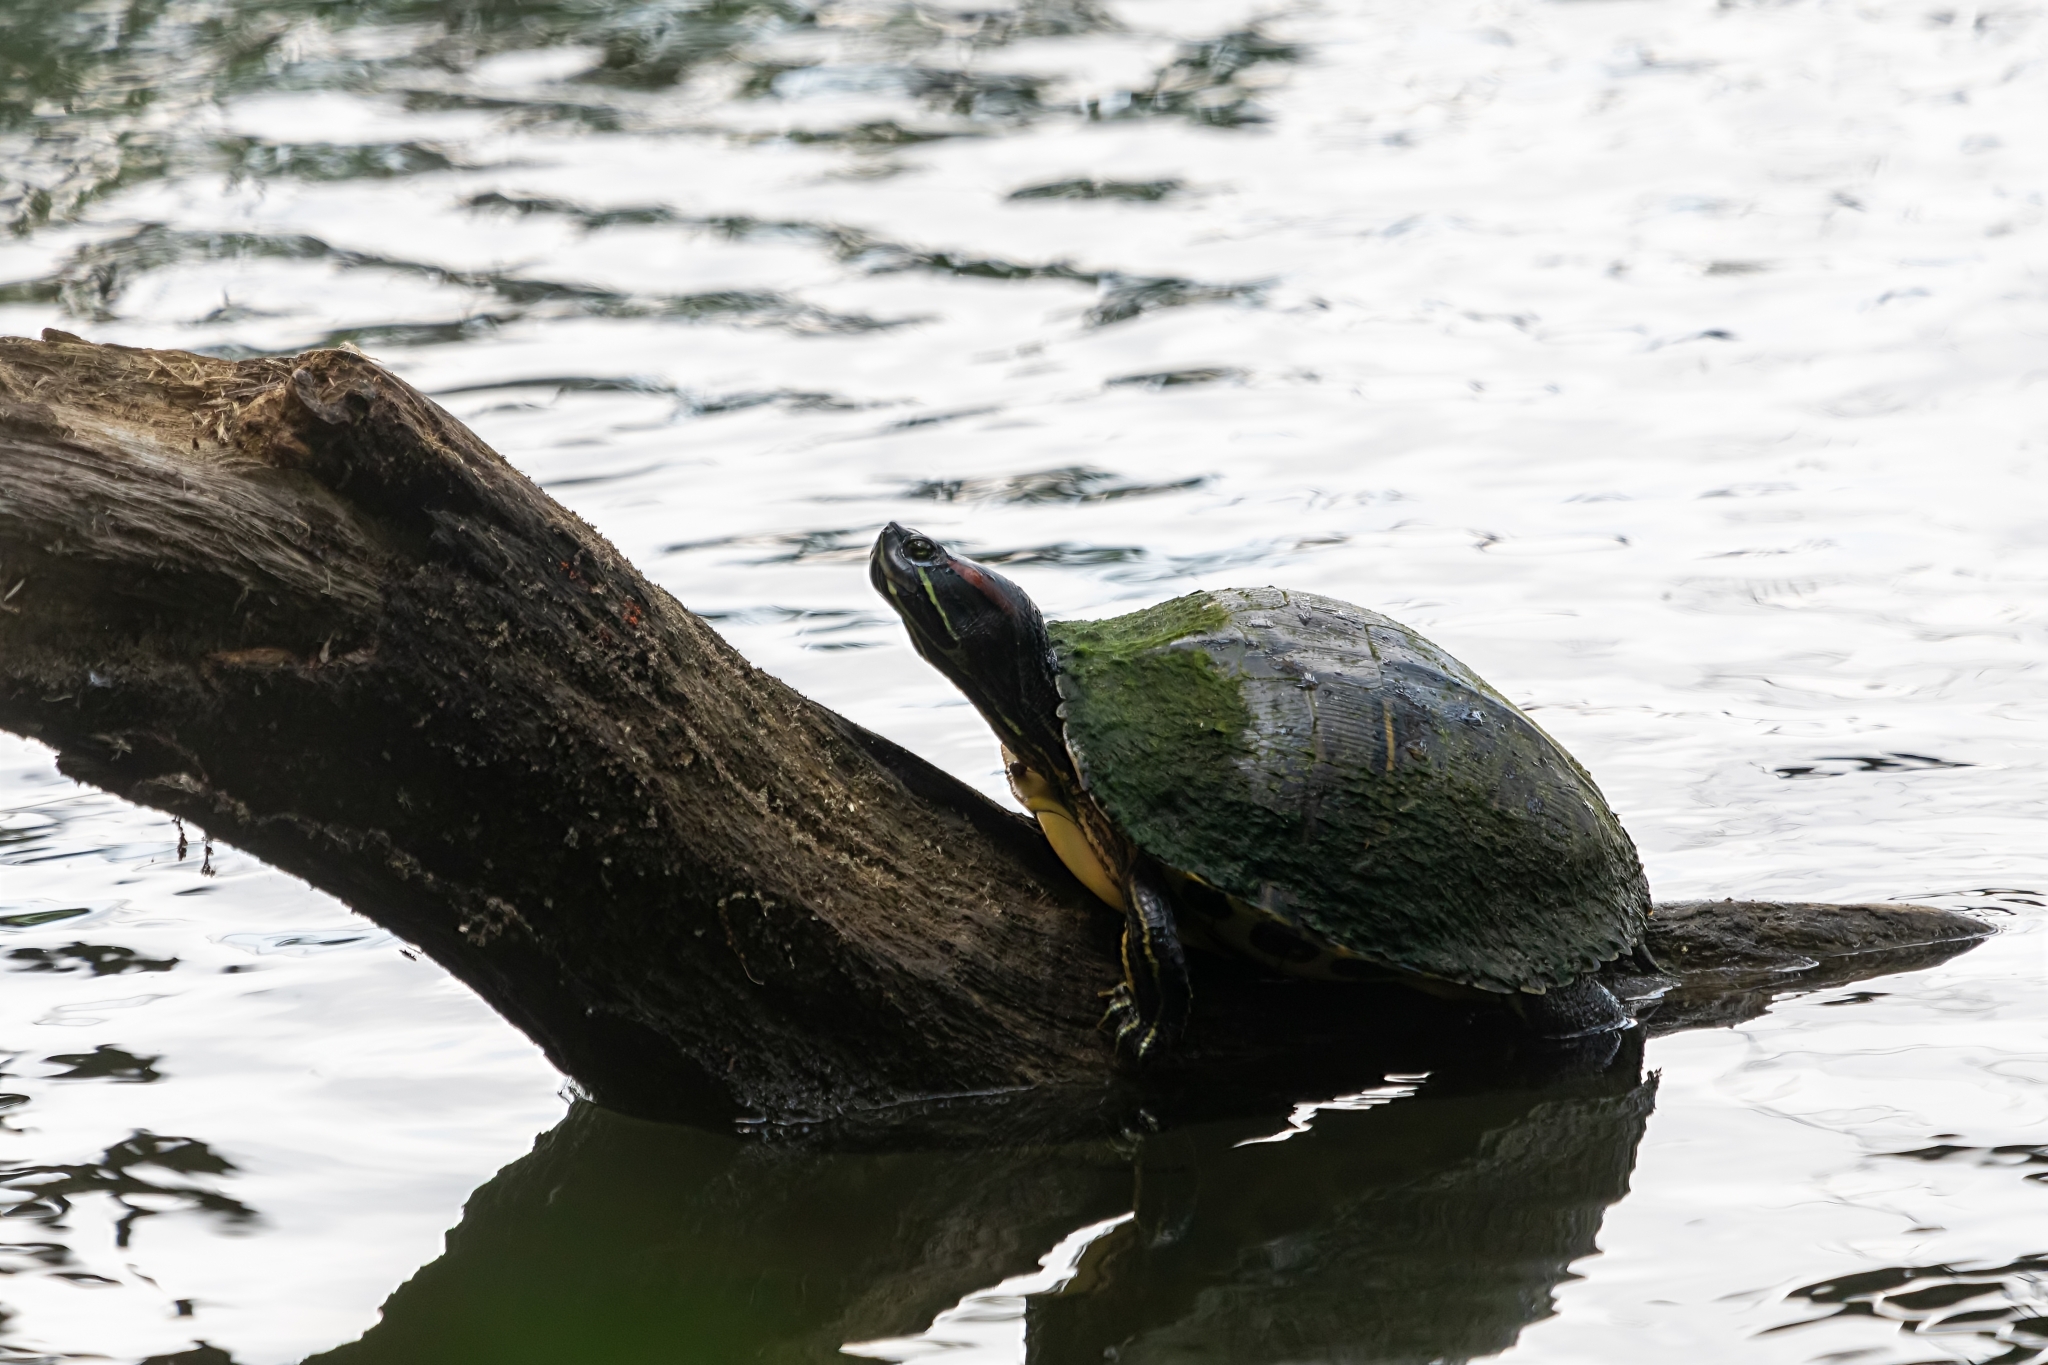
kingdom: Animalia
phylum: Chordata
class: Testudines
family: Emydidae
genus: Trachemys
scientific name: Trachemys scripta
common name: Slider
